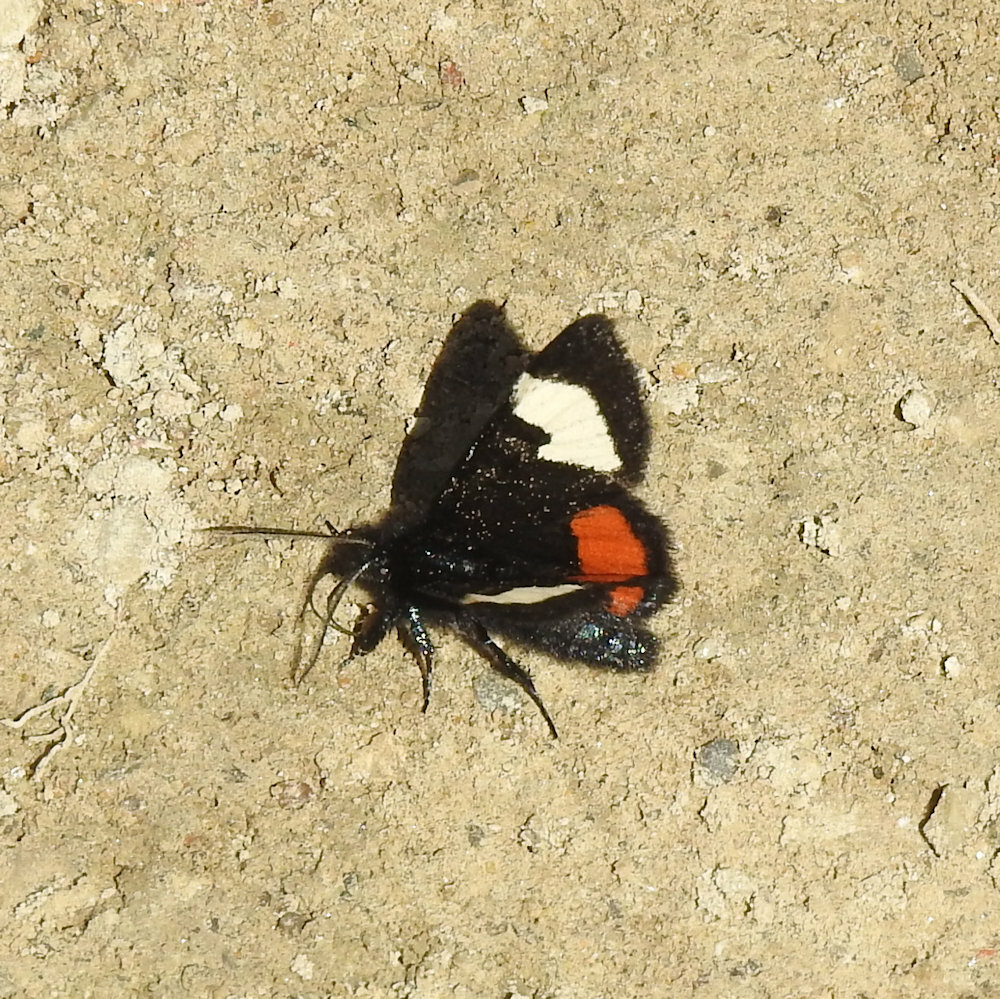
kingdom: Animalia
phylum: Arthropoda
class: Insecta
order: Lepidoptera
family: Noctuidae
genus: Psychomorpha
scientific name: Psychomorpha epimenis
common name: Grapevine epimenis moth
